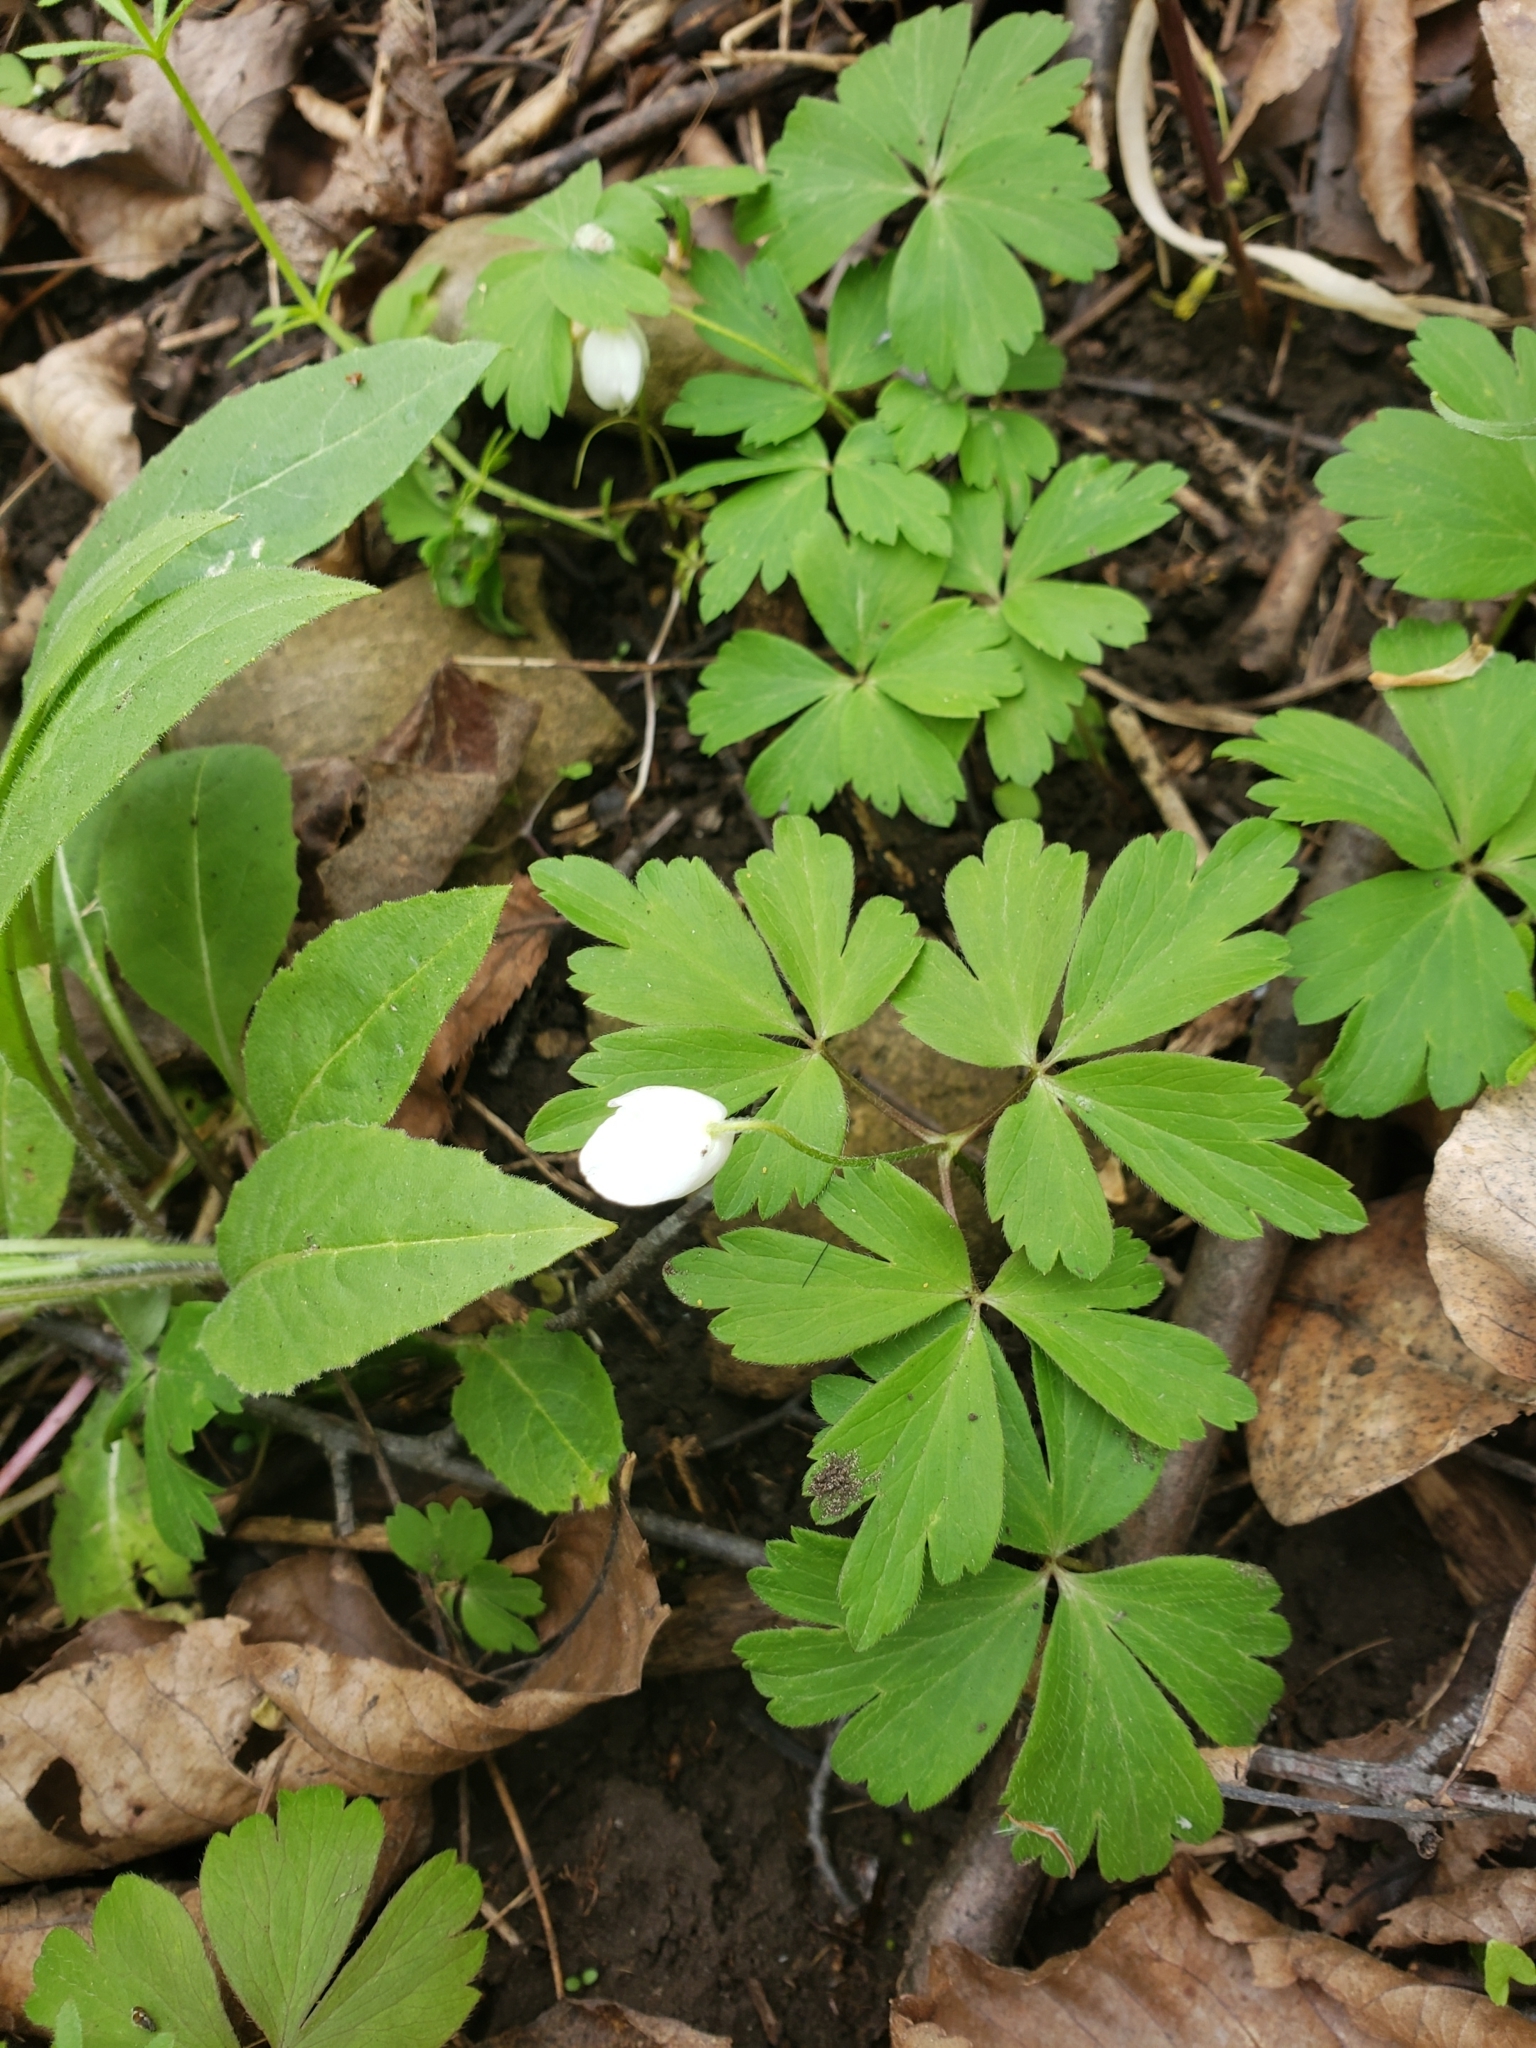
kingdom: Plantae
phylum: Tracheophyta
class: Magnoliopsida
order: Ranunculales
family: Ranunculaceae
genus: Anemone
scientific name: Anemone quinquefolia
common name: Wood anemone
